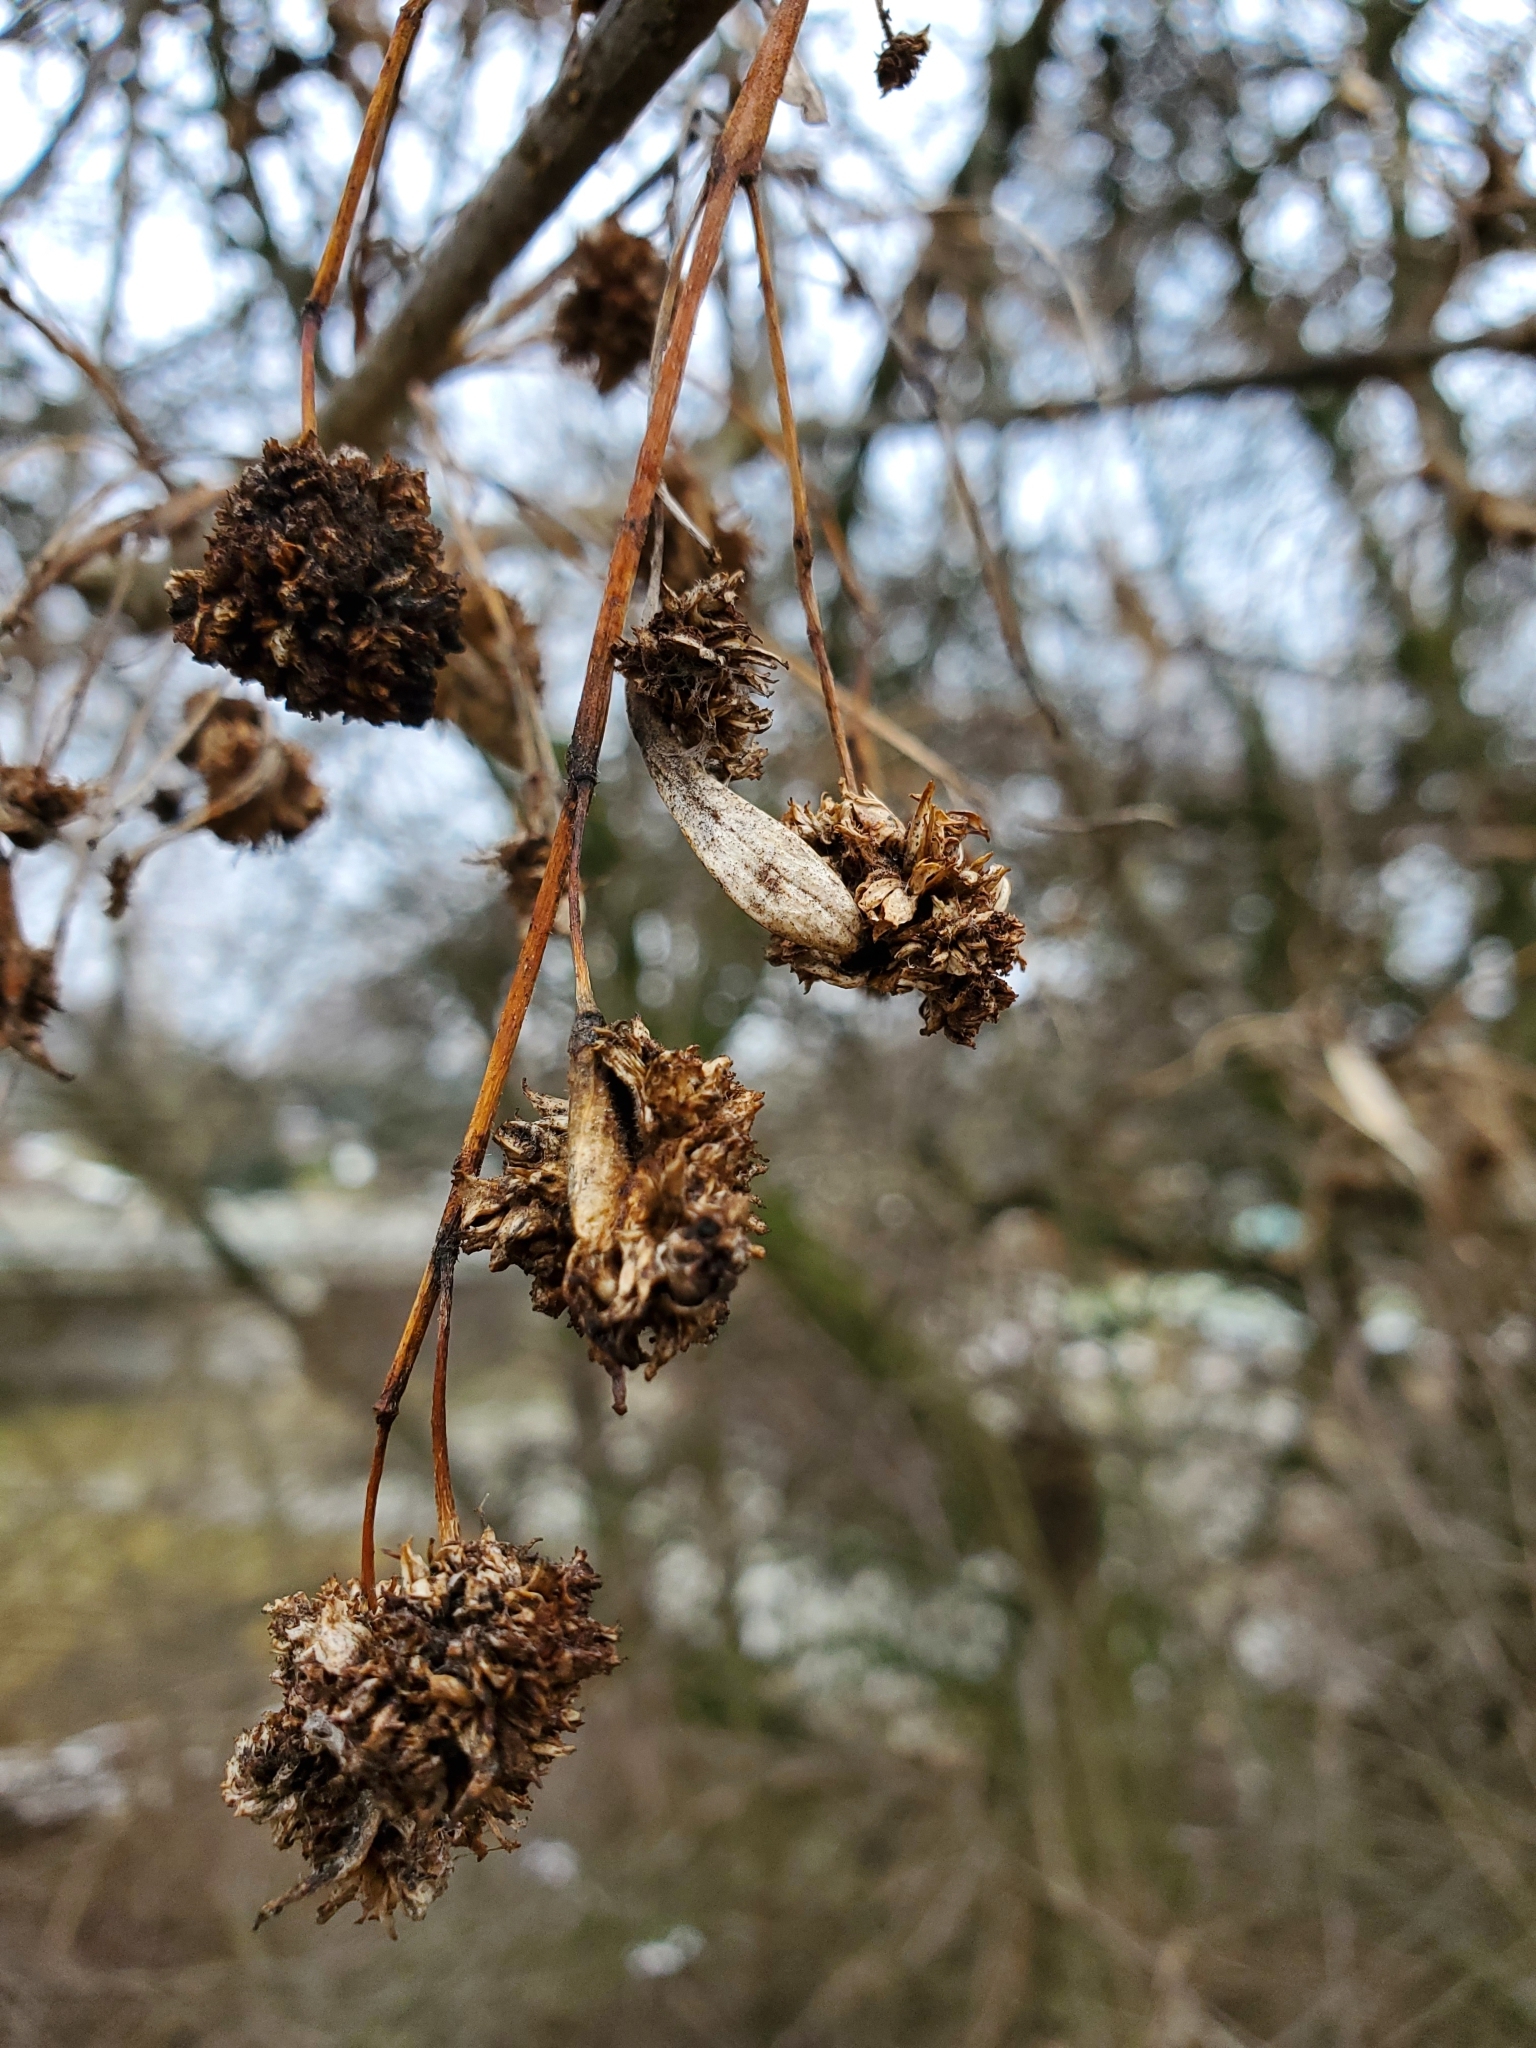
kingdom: Animalia
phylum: Arthropoda
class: Arachnida
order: Trombidiformes
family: Eriophyidae
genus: Aceria
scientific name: Aceria fraxiniflora
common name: Ash flower gall mite
